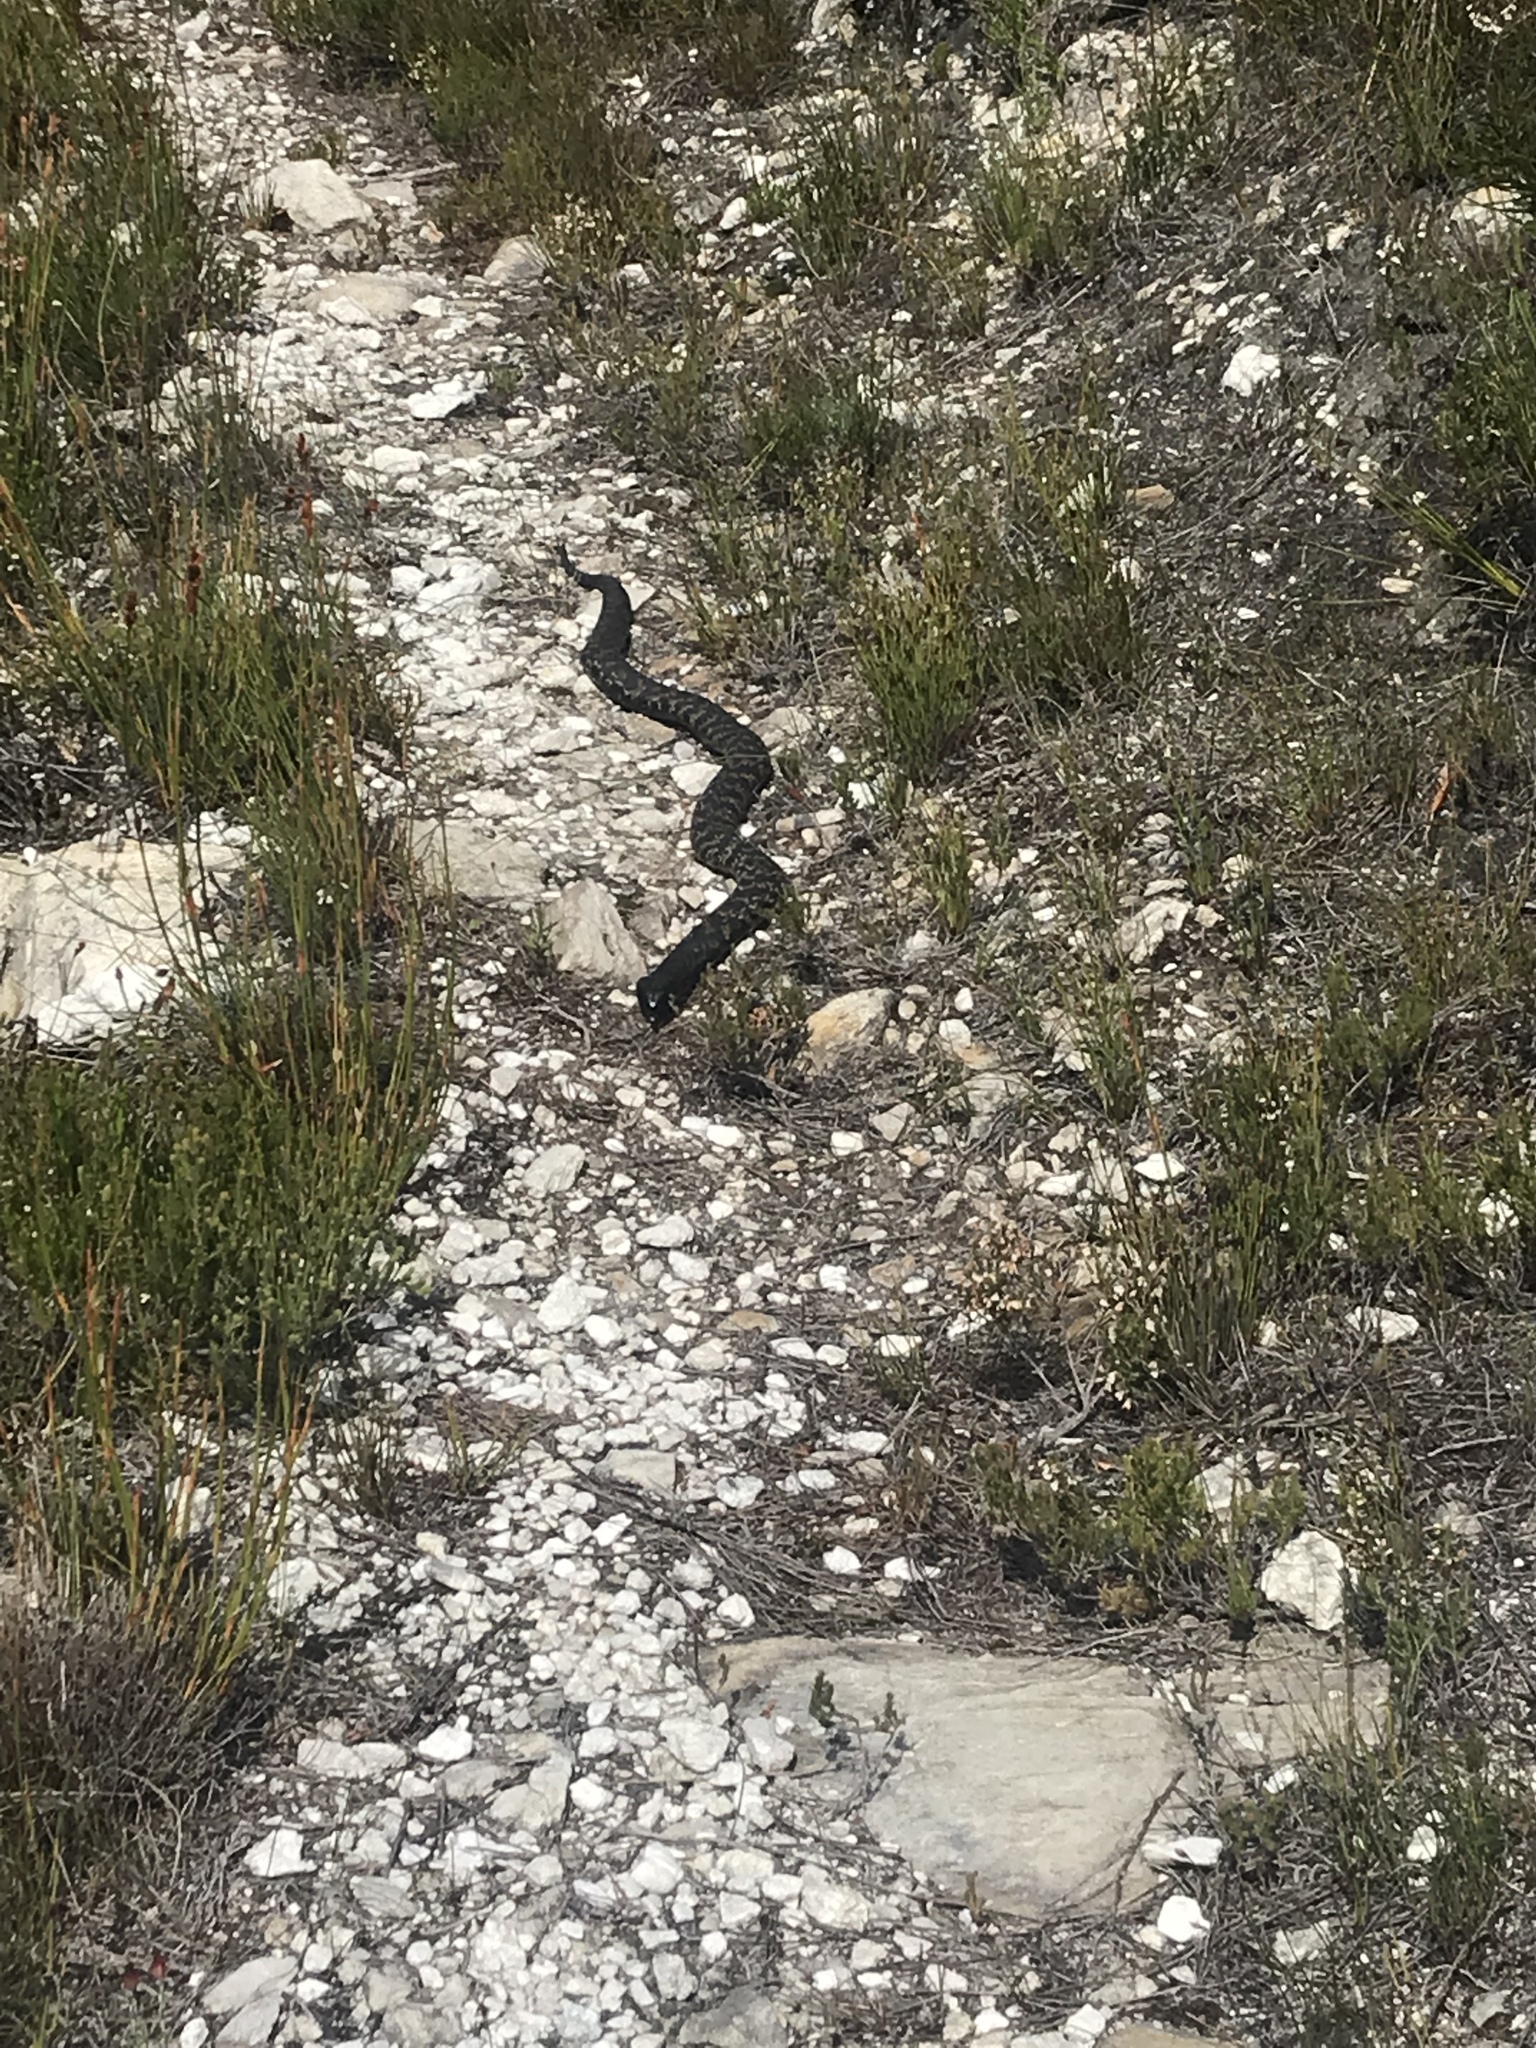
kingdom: Animalia
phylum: Chordata
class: Squamata
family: Elapidae
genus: Hemachatus
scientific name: Hemachatus haemachatus
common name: Ring-necked spitting cobra
